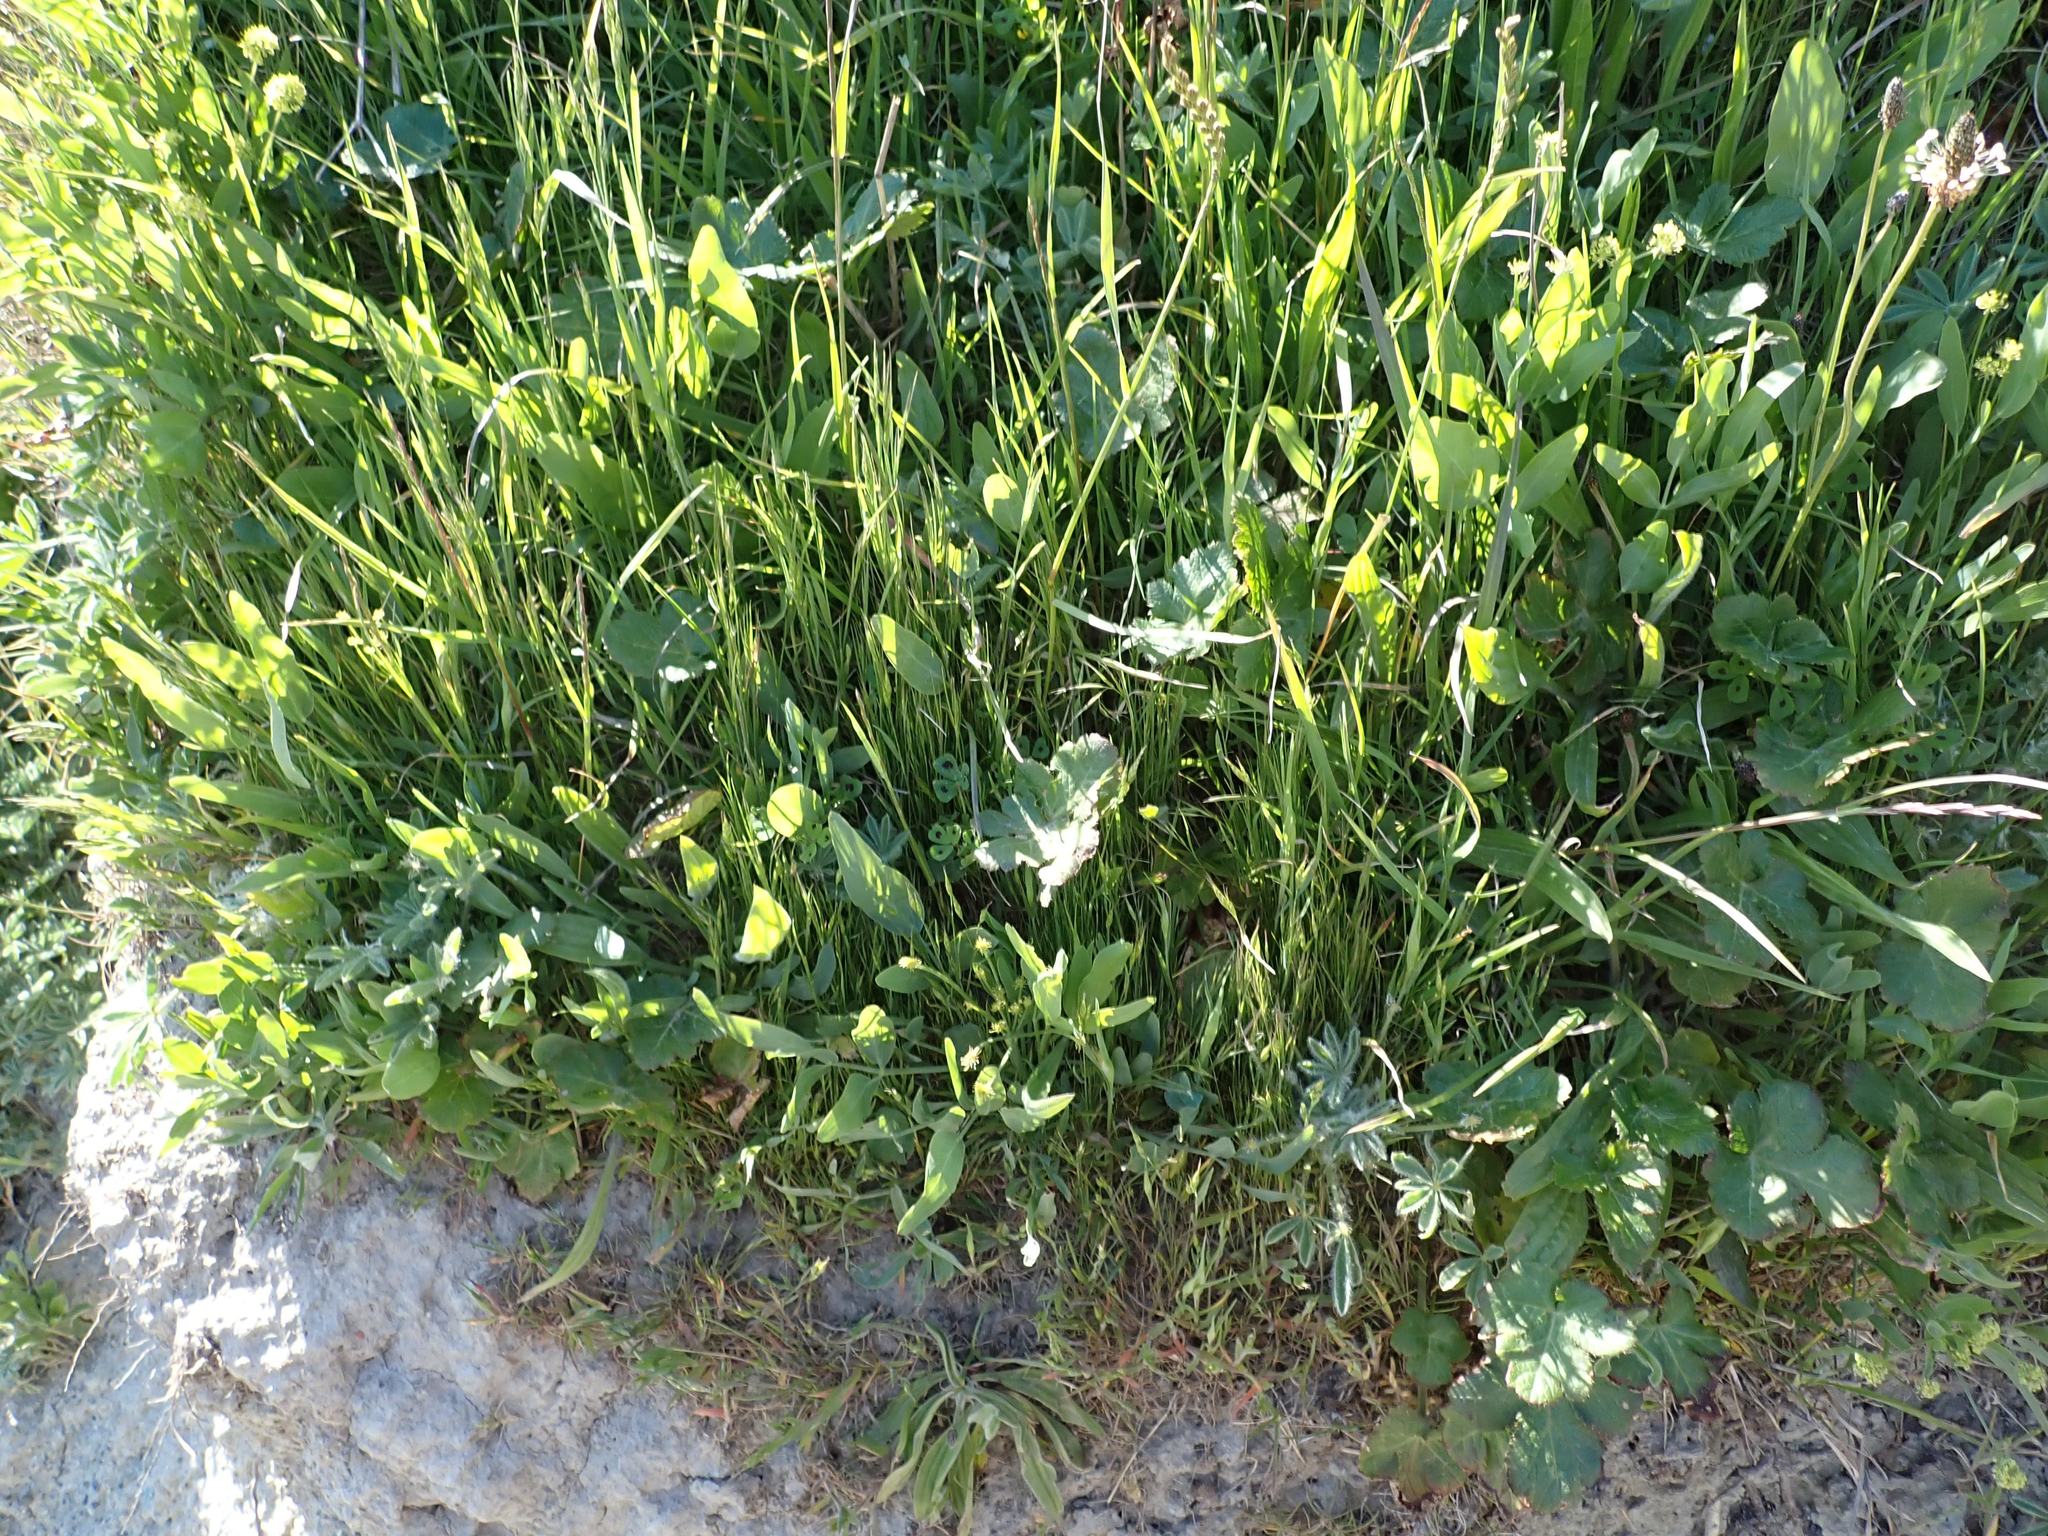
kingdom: Plantae
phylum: Tracheophyta
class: Magnoliopsida
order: Fabales
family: Fabaceae
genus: Medicago
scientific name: Medicago arabica
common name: Spotted medick
